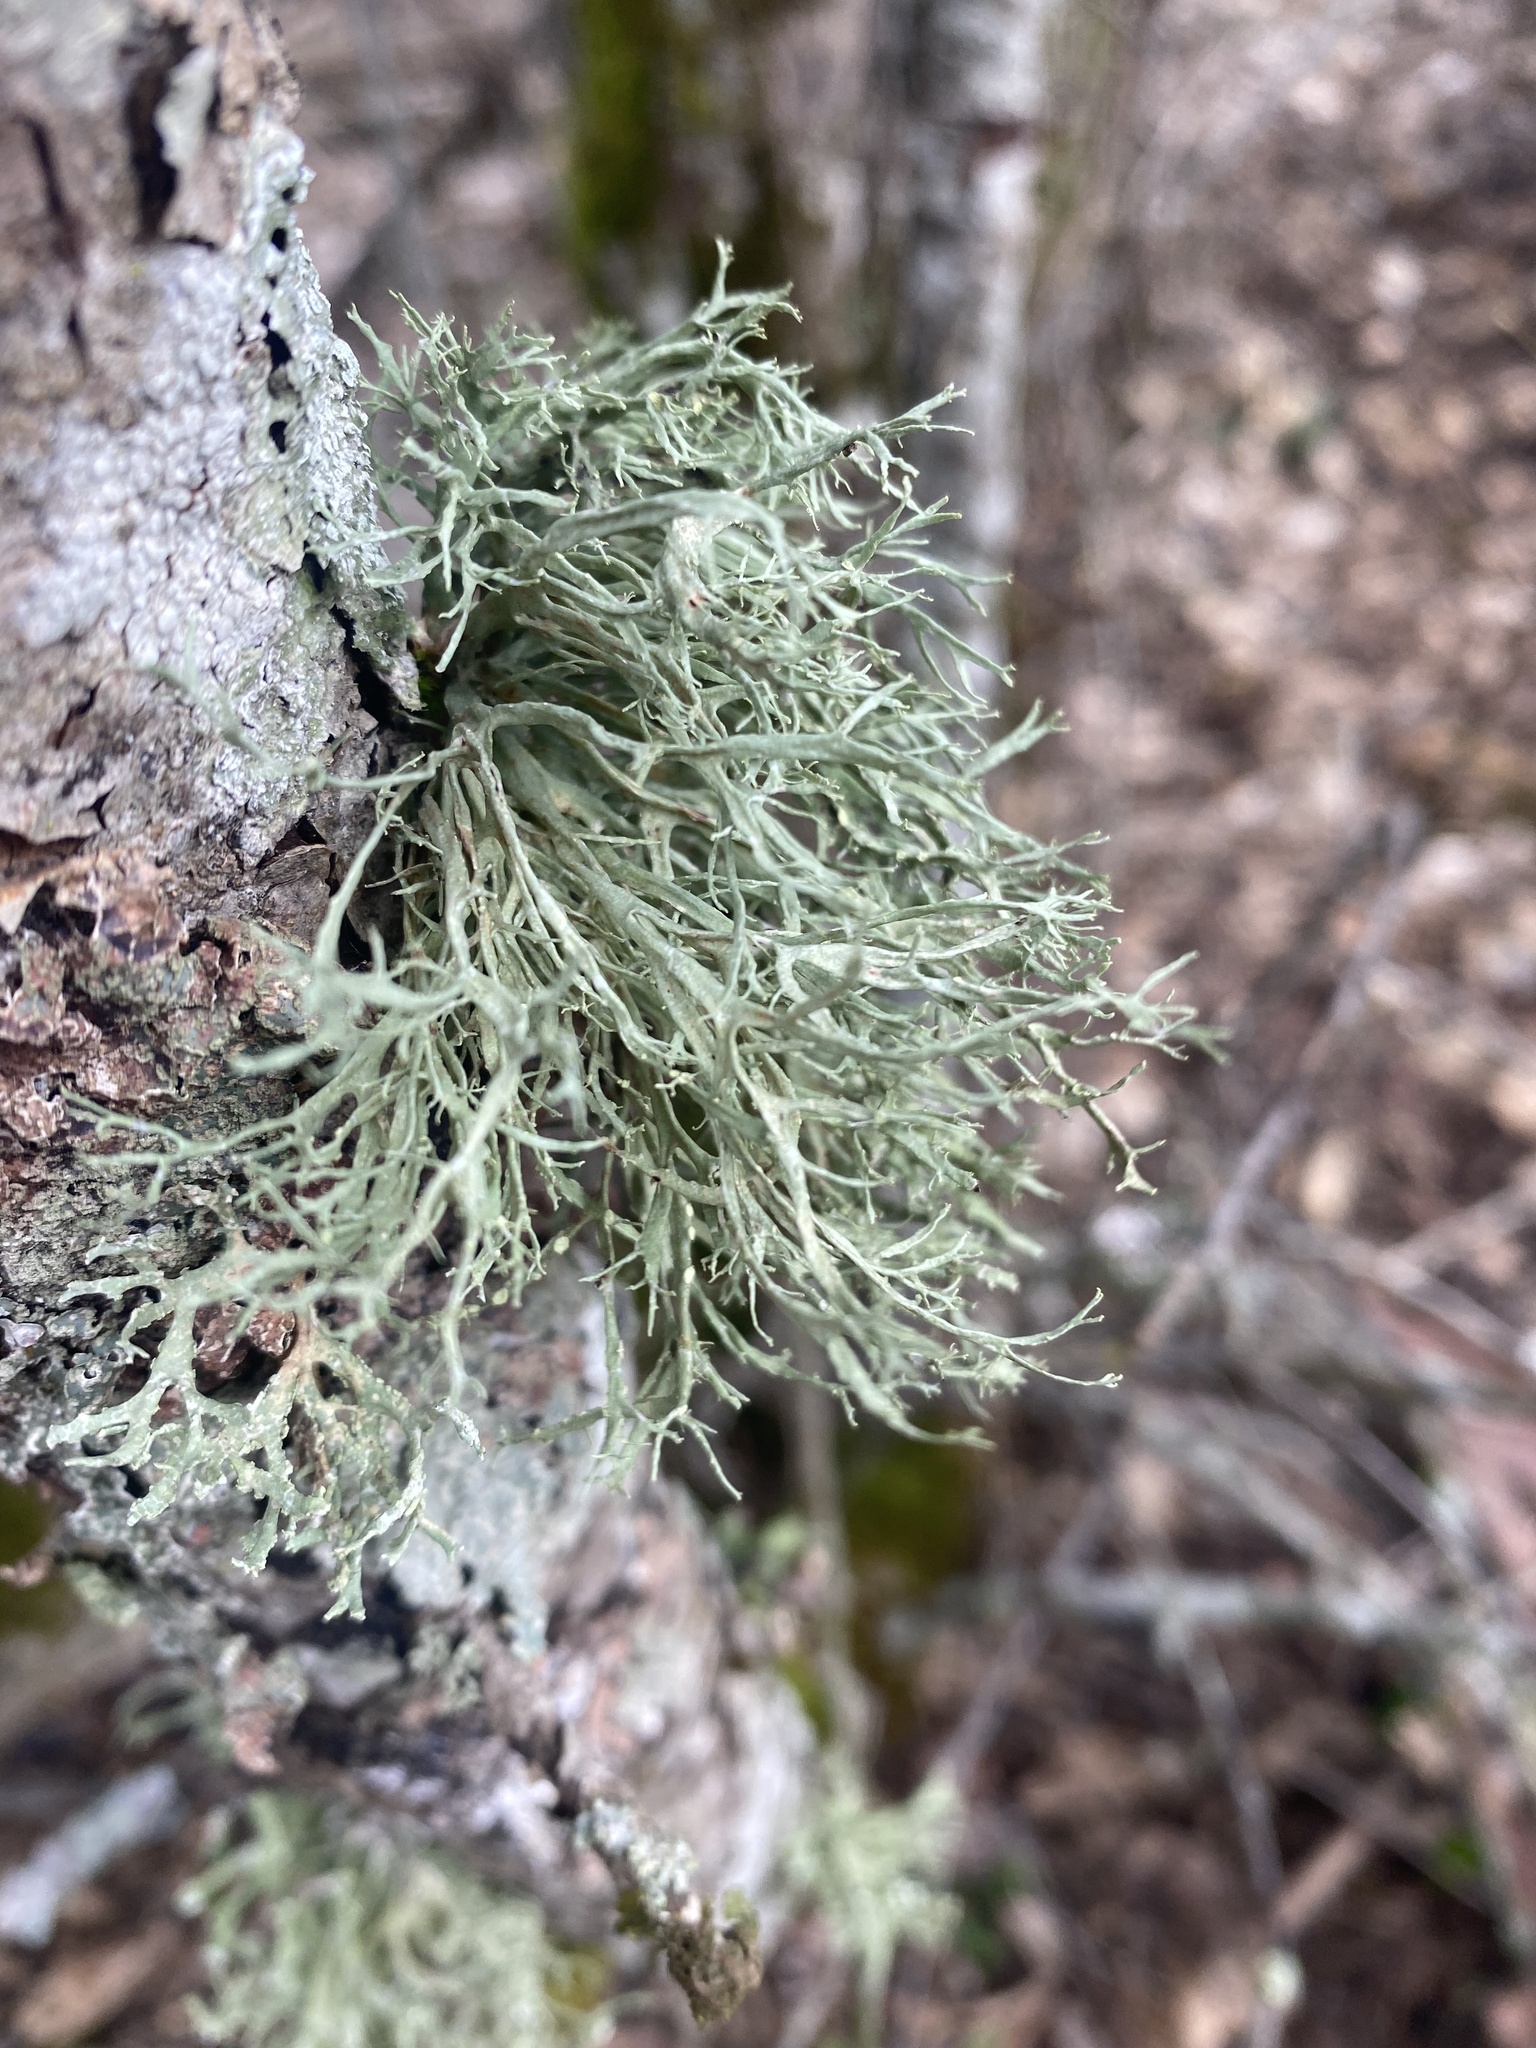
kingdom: Fungi
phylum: Ascomycota
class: Lecanoromycetes
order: Lecanorales
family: Ramalinaceae
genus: Ramalina
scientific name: Ramalina farinacea
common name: Farinose cartilage lichen
